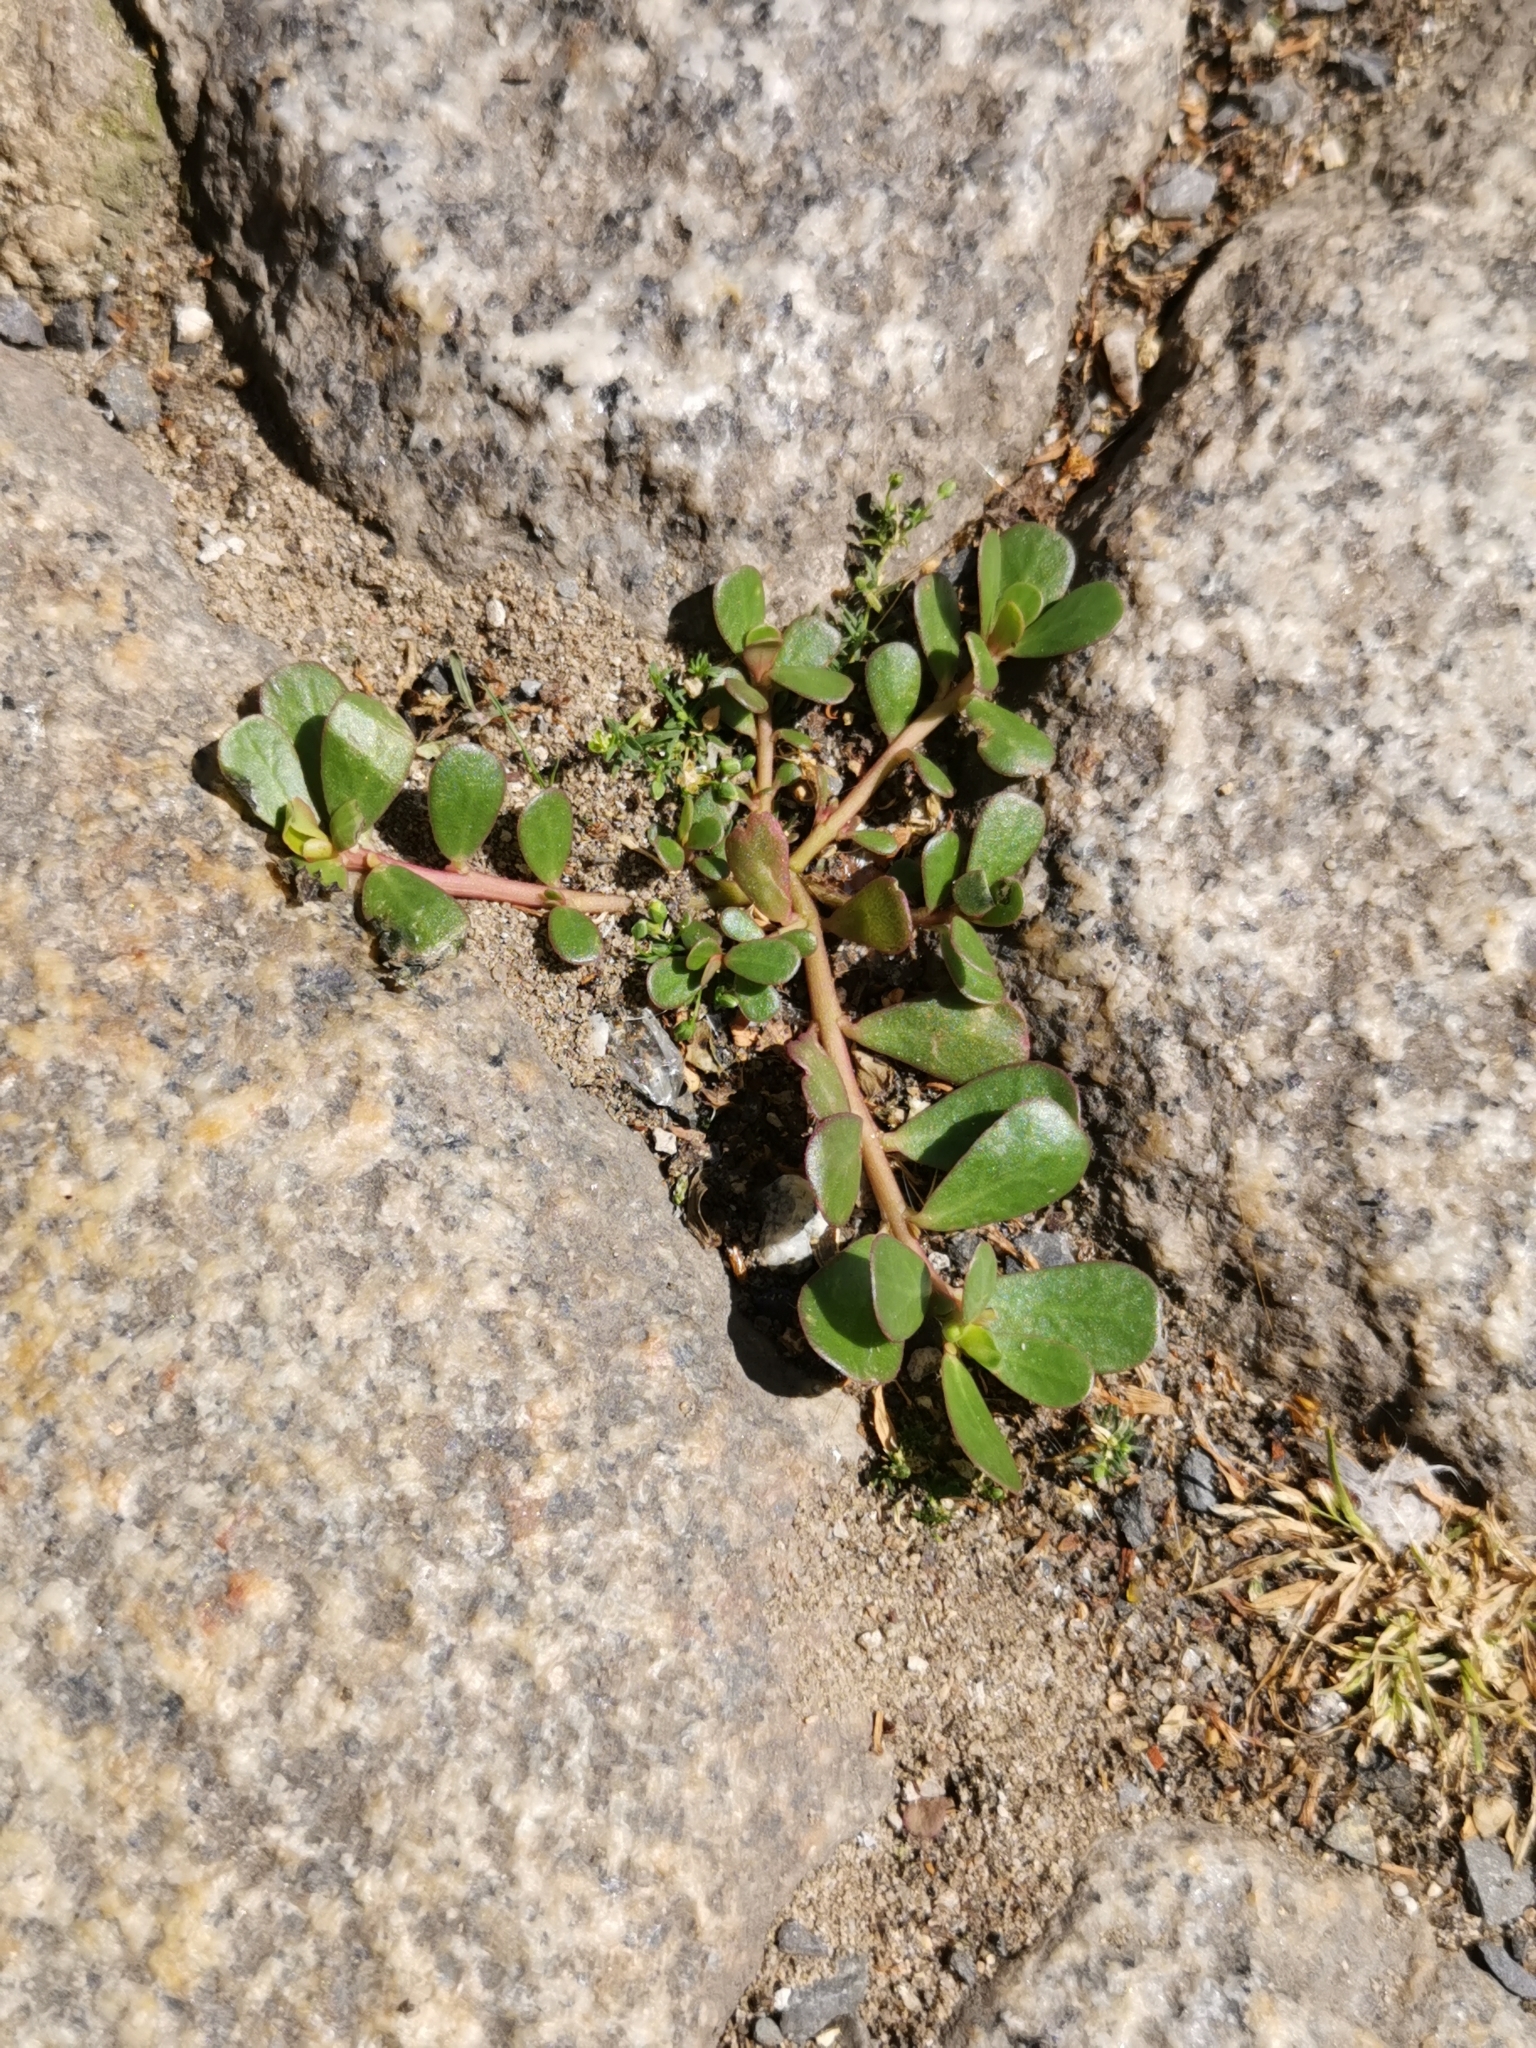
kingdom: Plantae
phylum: Tracheophyta
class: Magnoliopsida
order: Caryophyllales
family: Portulacaceae
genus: Portulaca
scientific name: Portulaca oleracea
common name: Common purslane
